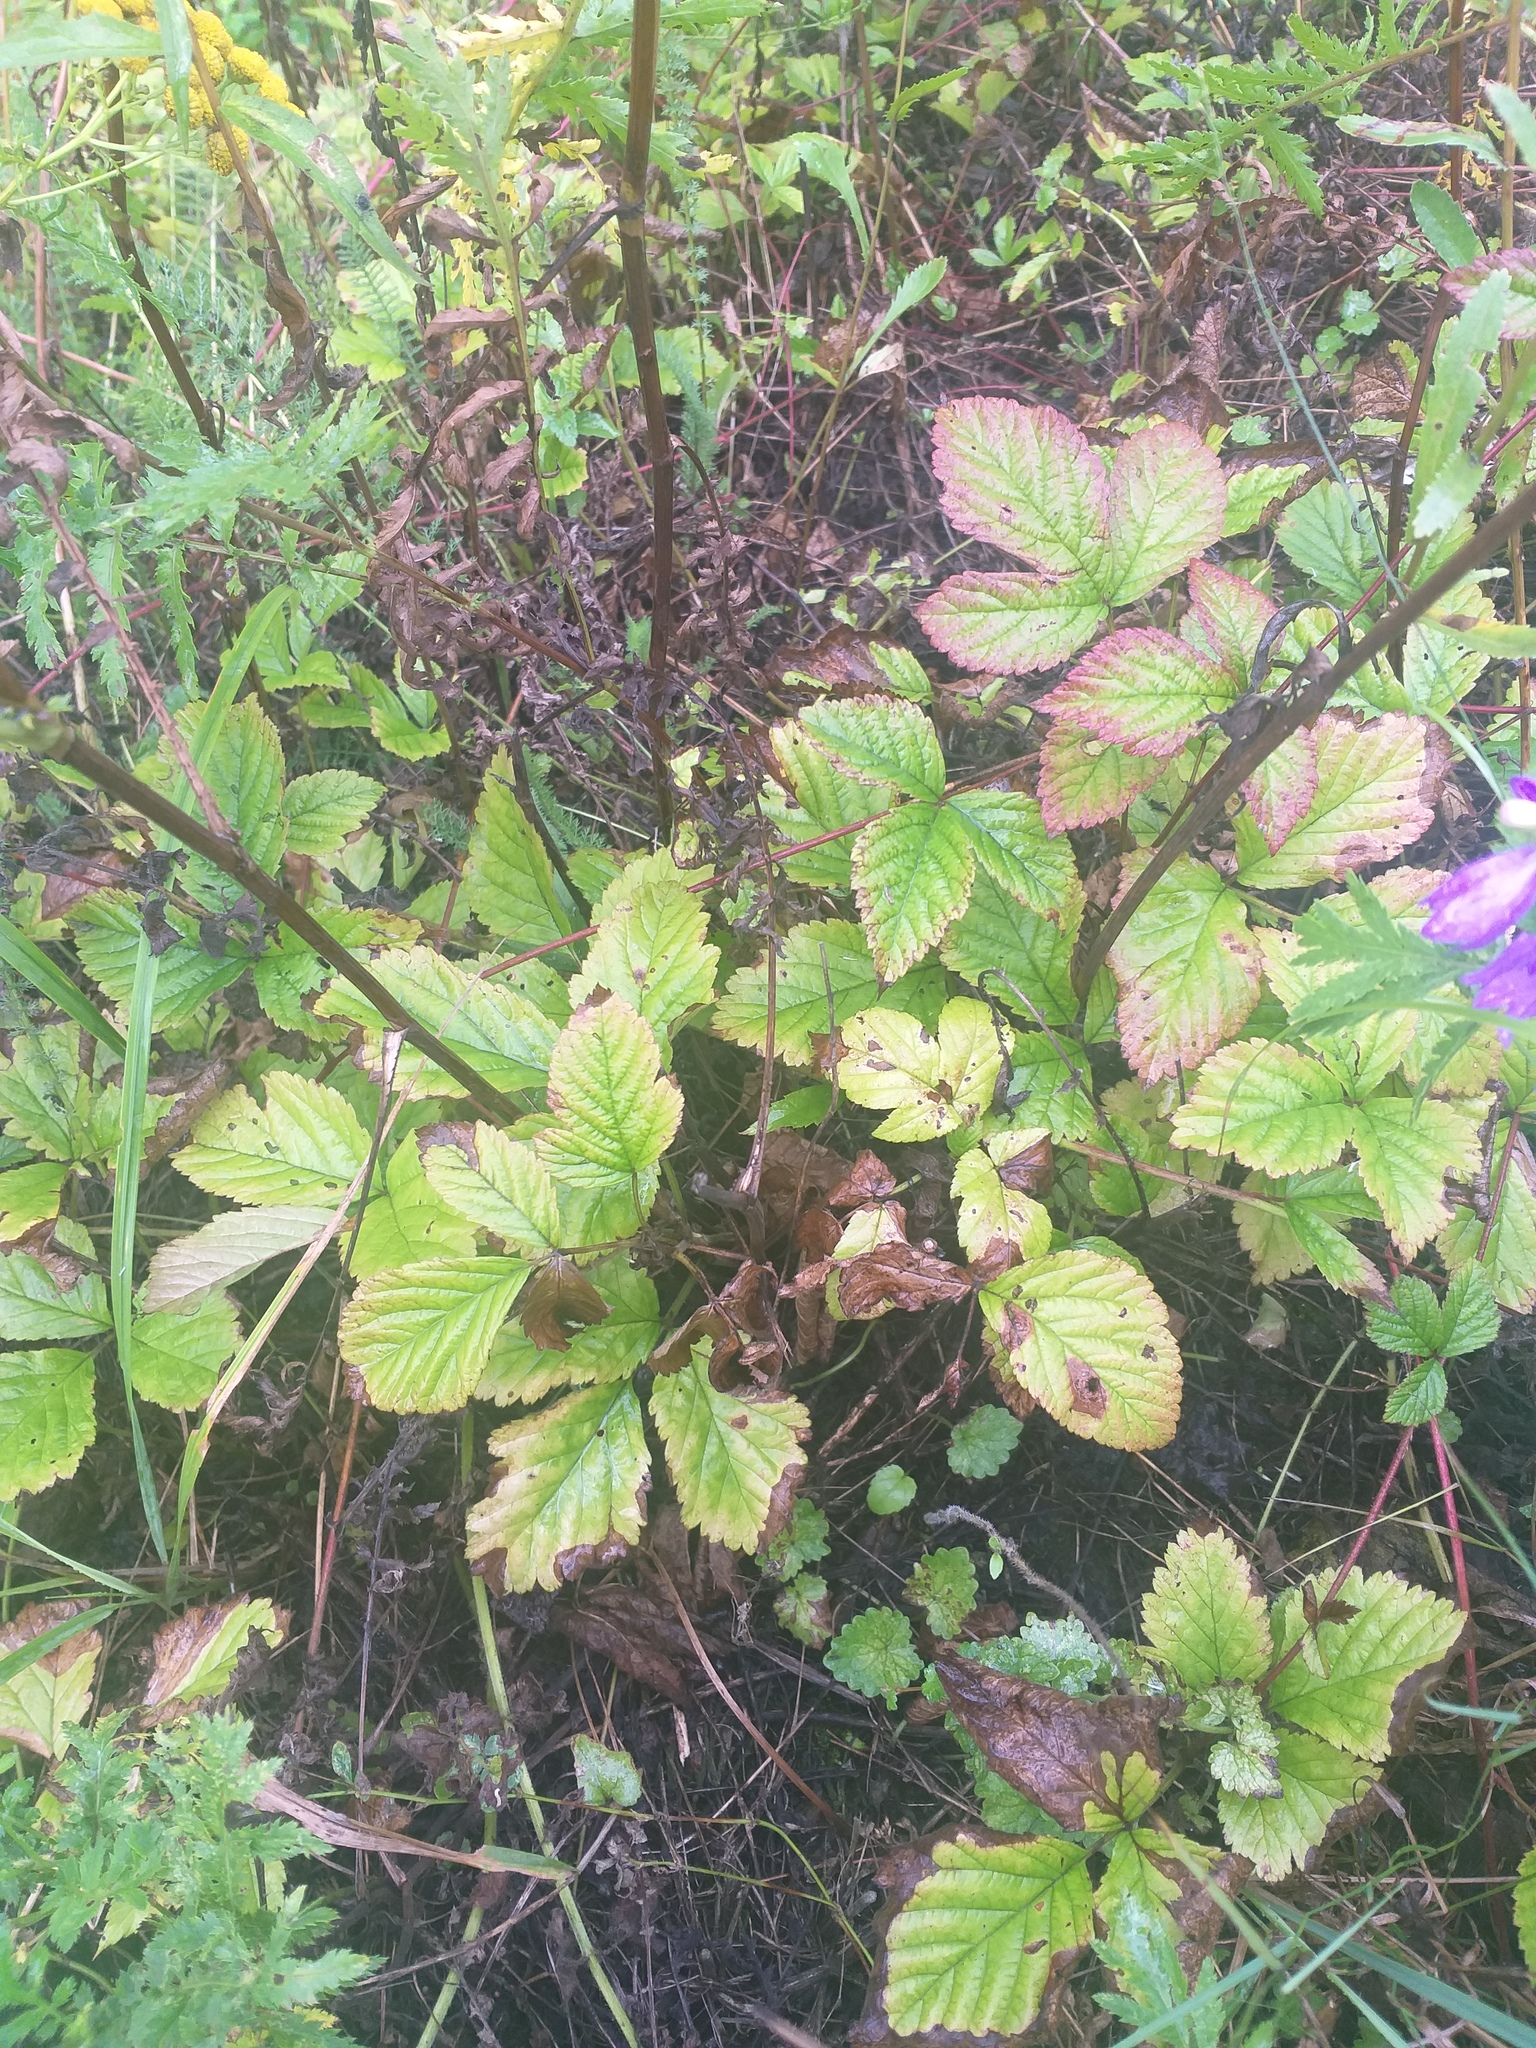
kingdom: Plantae
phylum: Tracheophyta
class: Magnoliopsida
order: Rosales
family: Rosaceae
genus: Rubus
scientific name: Rubus saxatilis
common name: Stone bramble
